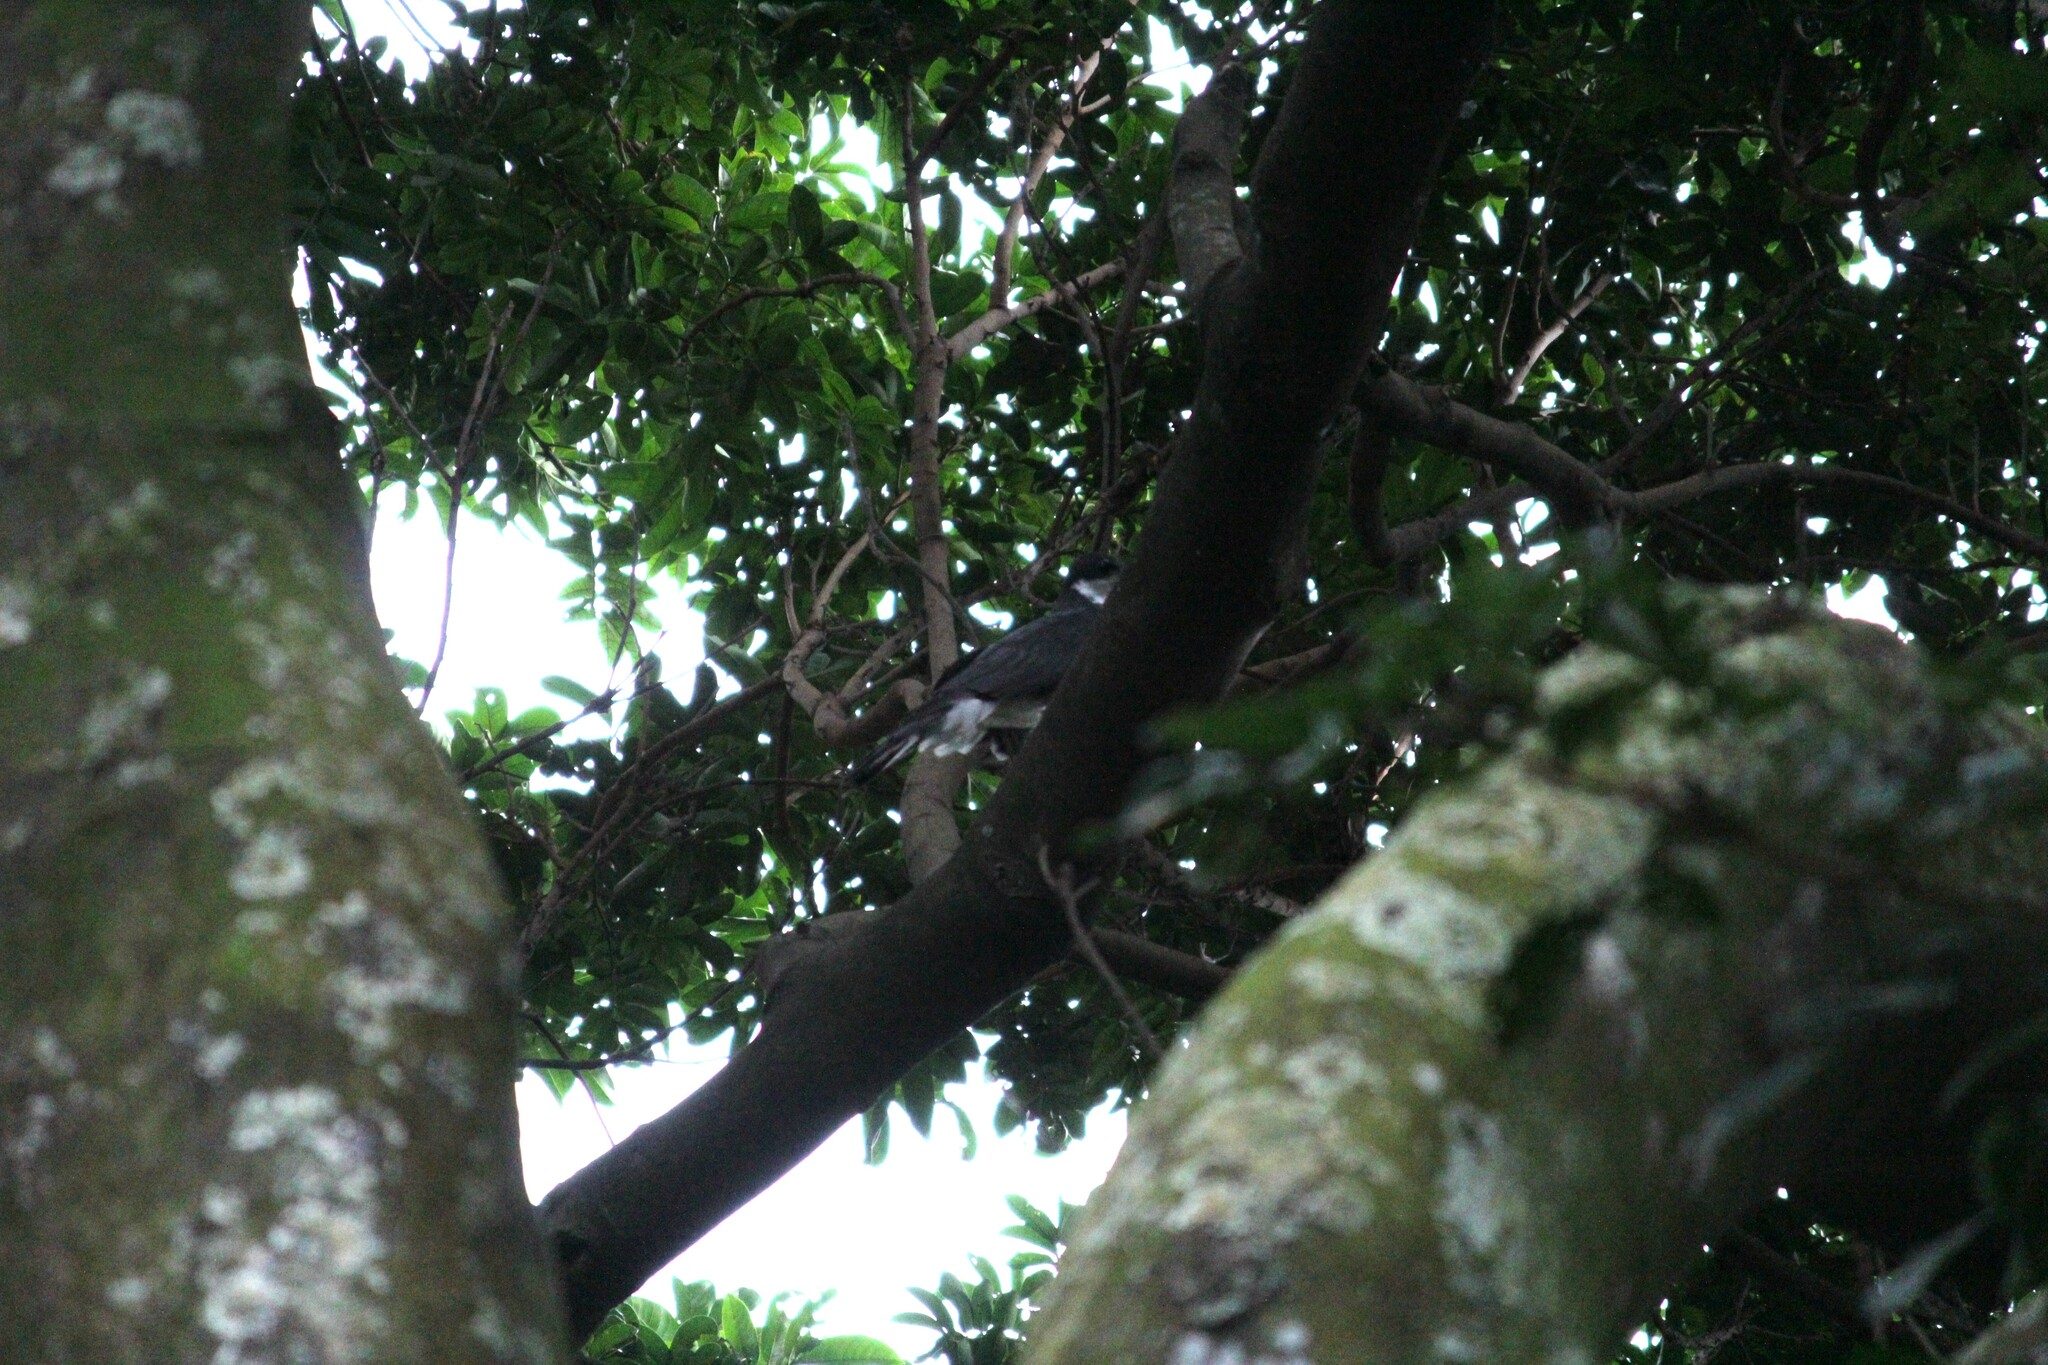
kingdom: Animalia
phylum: Chordata
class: Aves
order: Accipitriformes
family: Accipitridae
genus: Accipiter
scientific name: Accipiter melanoleucus
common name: Black sparrowhawk
